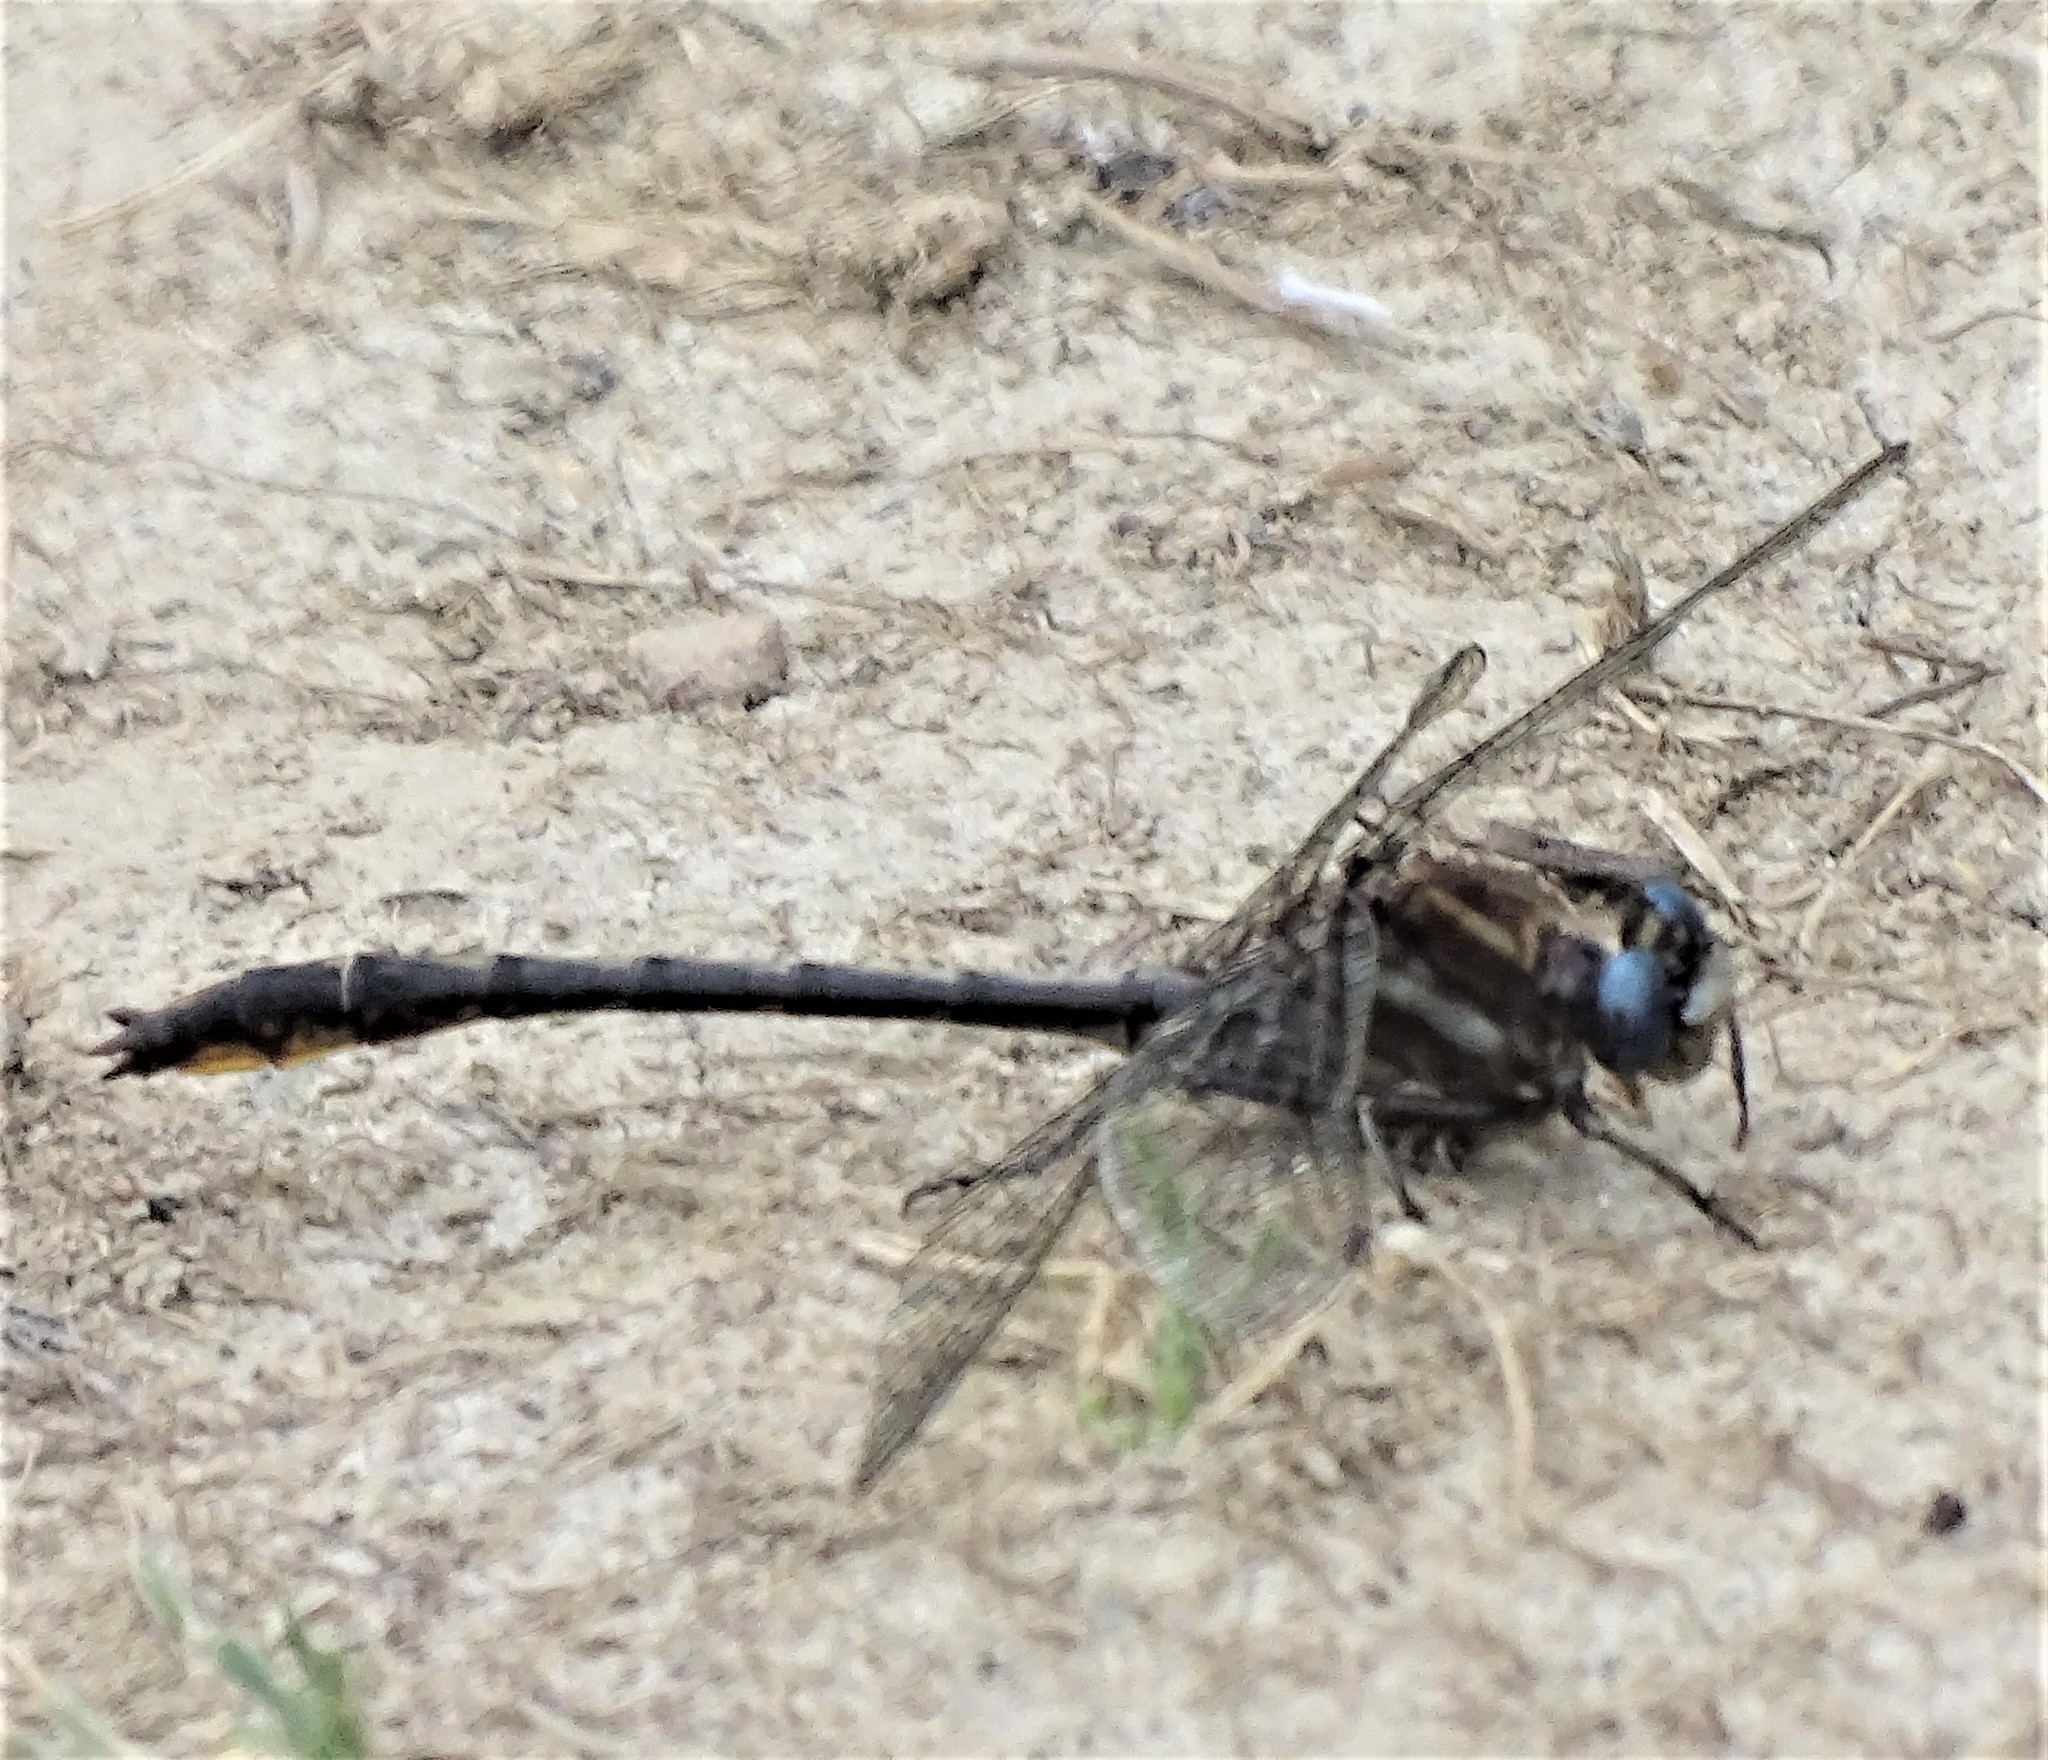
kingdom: Animalia
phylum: Arthropoda
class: Insecta
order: Odonata
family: Gomphidae
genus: Phanogomphus
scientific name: Phanogomphus exilis
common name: Lancet clubtail
